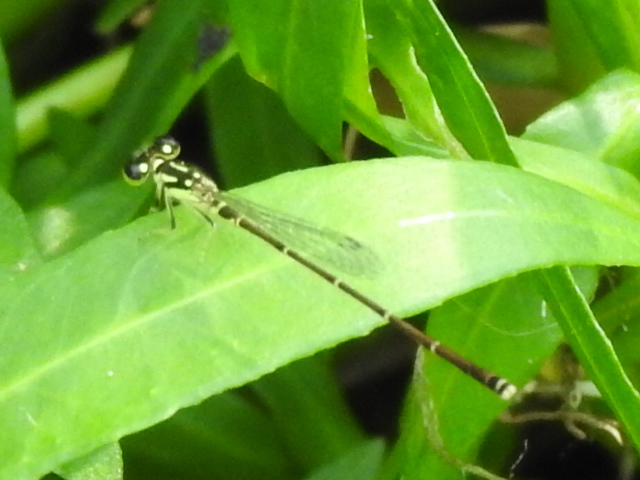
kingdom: Animalia
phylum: Arthropoda
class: Insecta
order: Odonata
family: Coenagrionidae
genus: Ischnura
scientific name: Ischnura posita
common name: Fragile forktail
